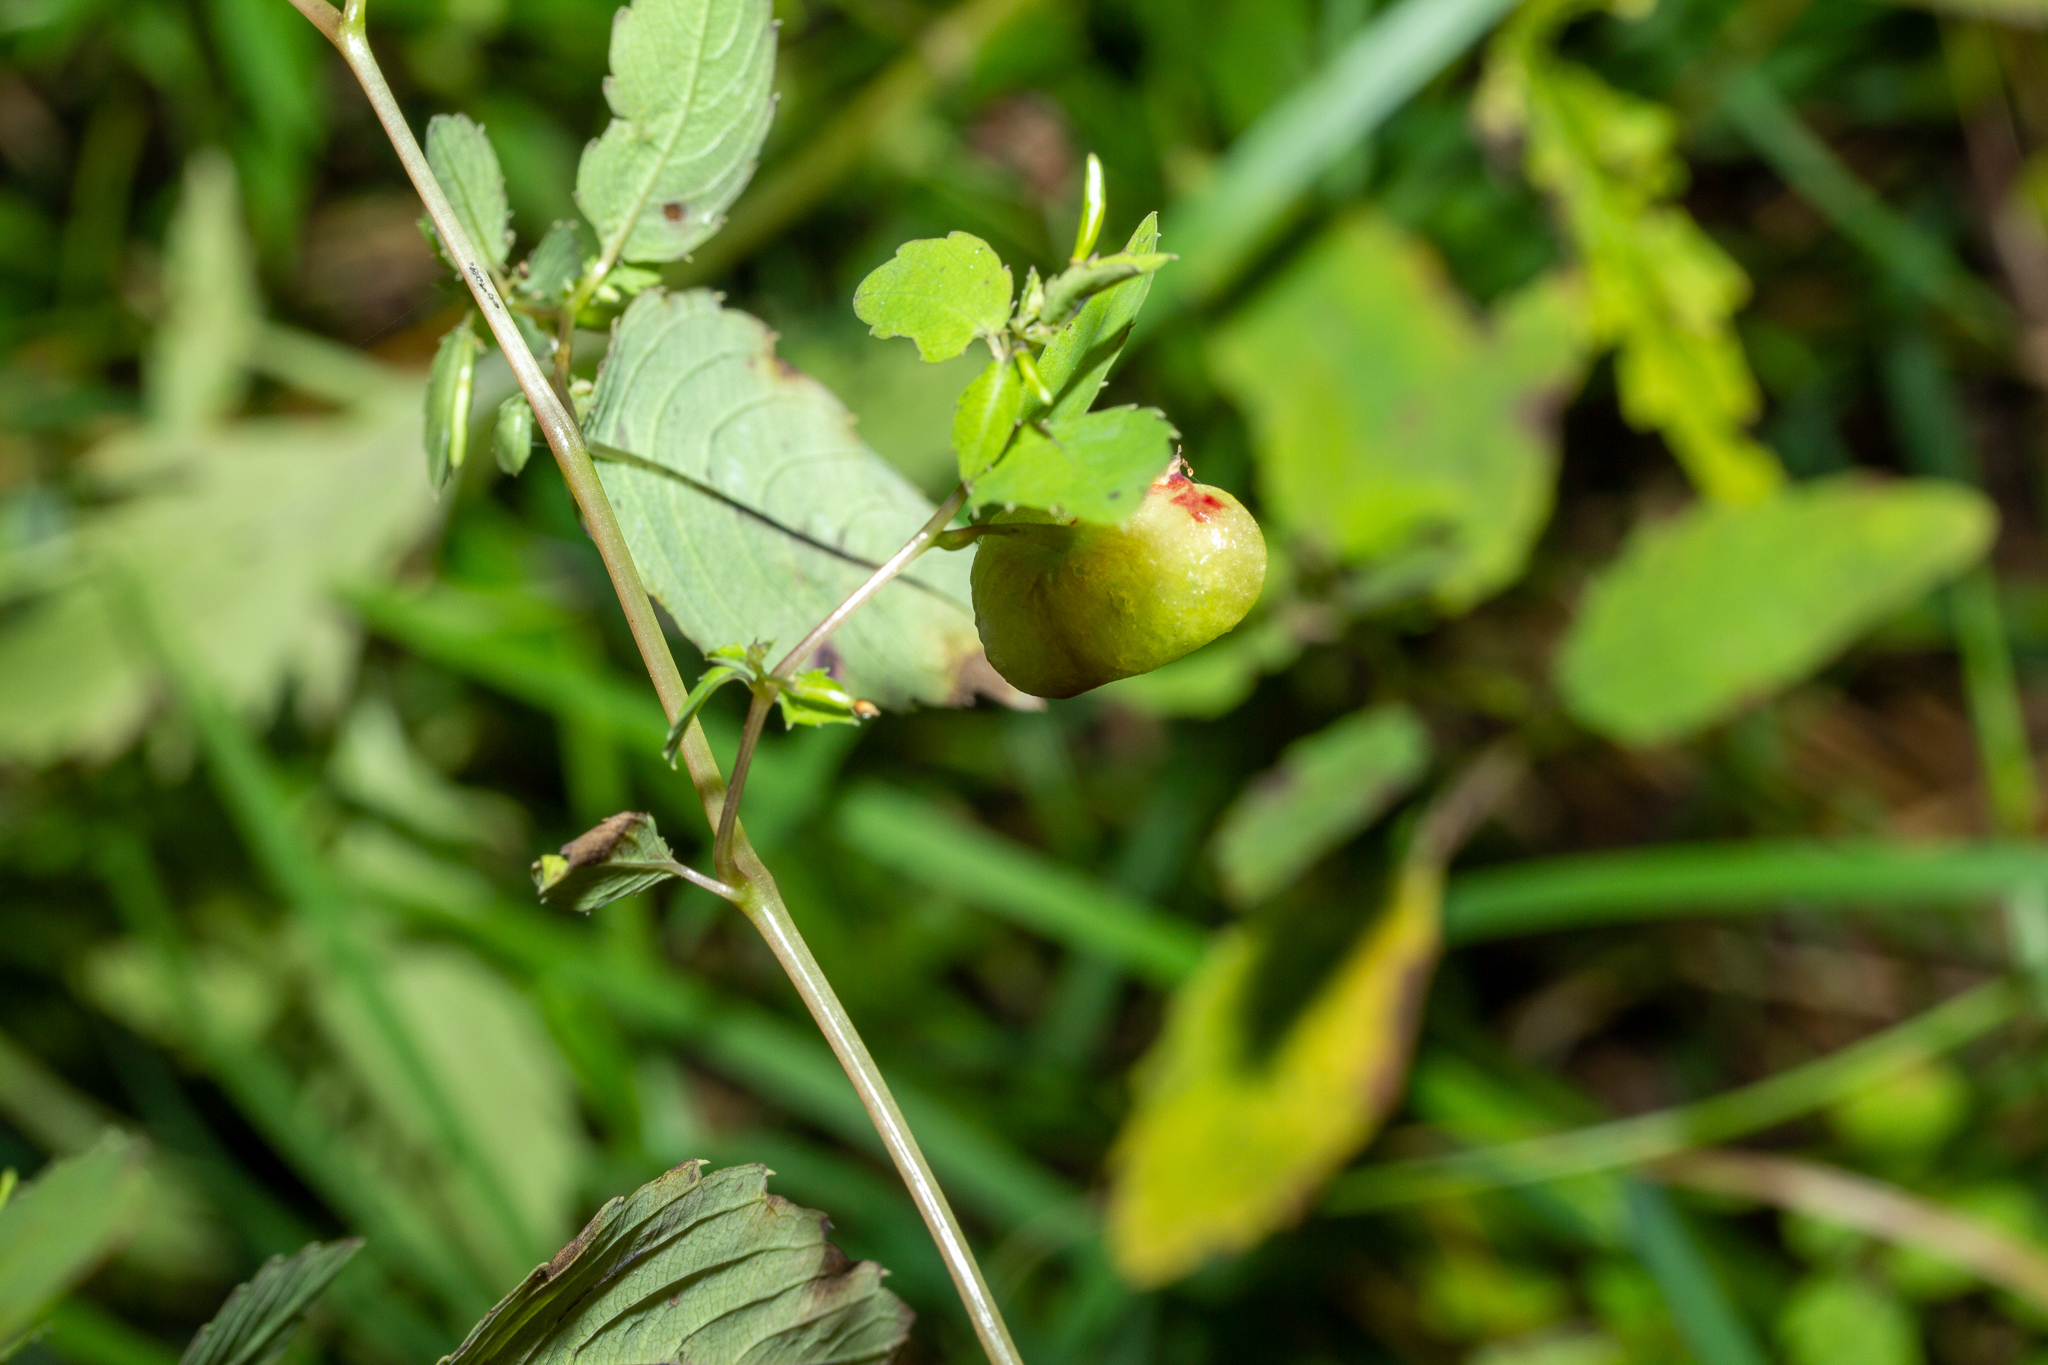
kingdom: Animalia
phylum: Arthropoda
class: Insecta
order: Diptera
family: Cecidomyiidae
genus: Schizomyia
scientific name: Schizomyia impatientis
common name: Jewelweed gall midge
